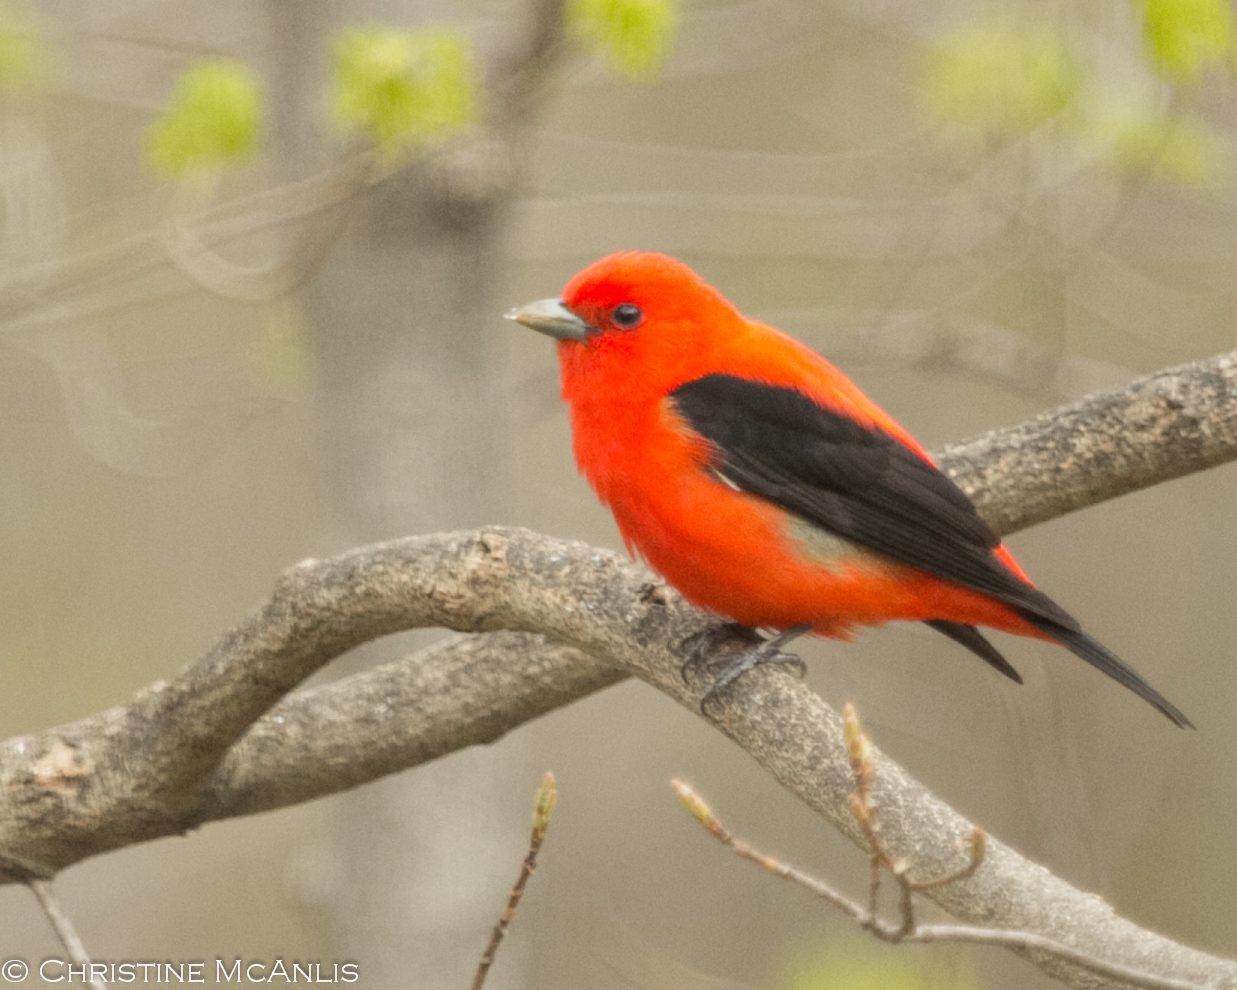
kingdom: Animalia
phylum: Chordata
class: Aves
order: Passeriformes
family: Cardinalidae
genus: Piranga
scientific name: Piranga olivacea
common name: Scarlet tanager
